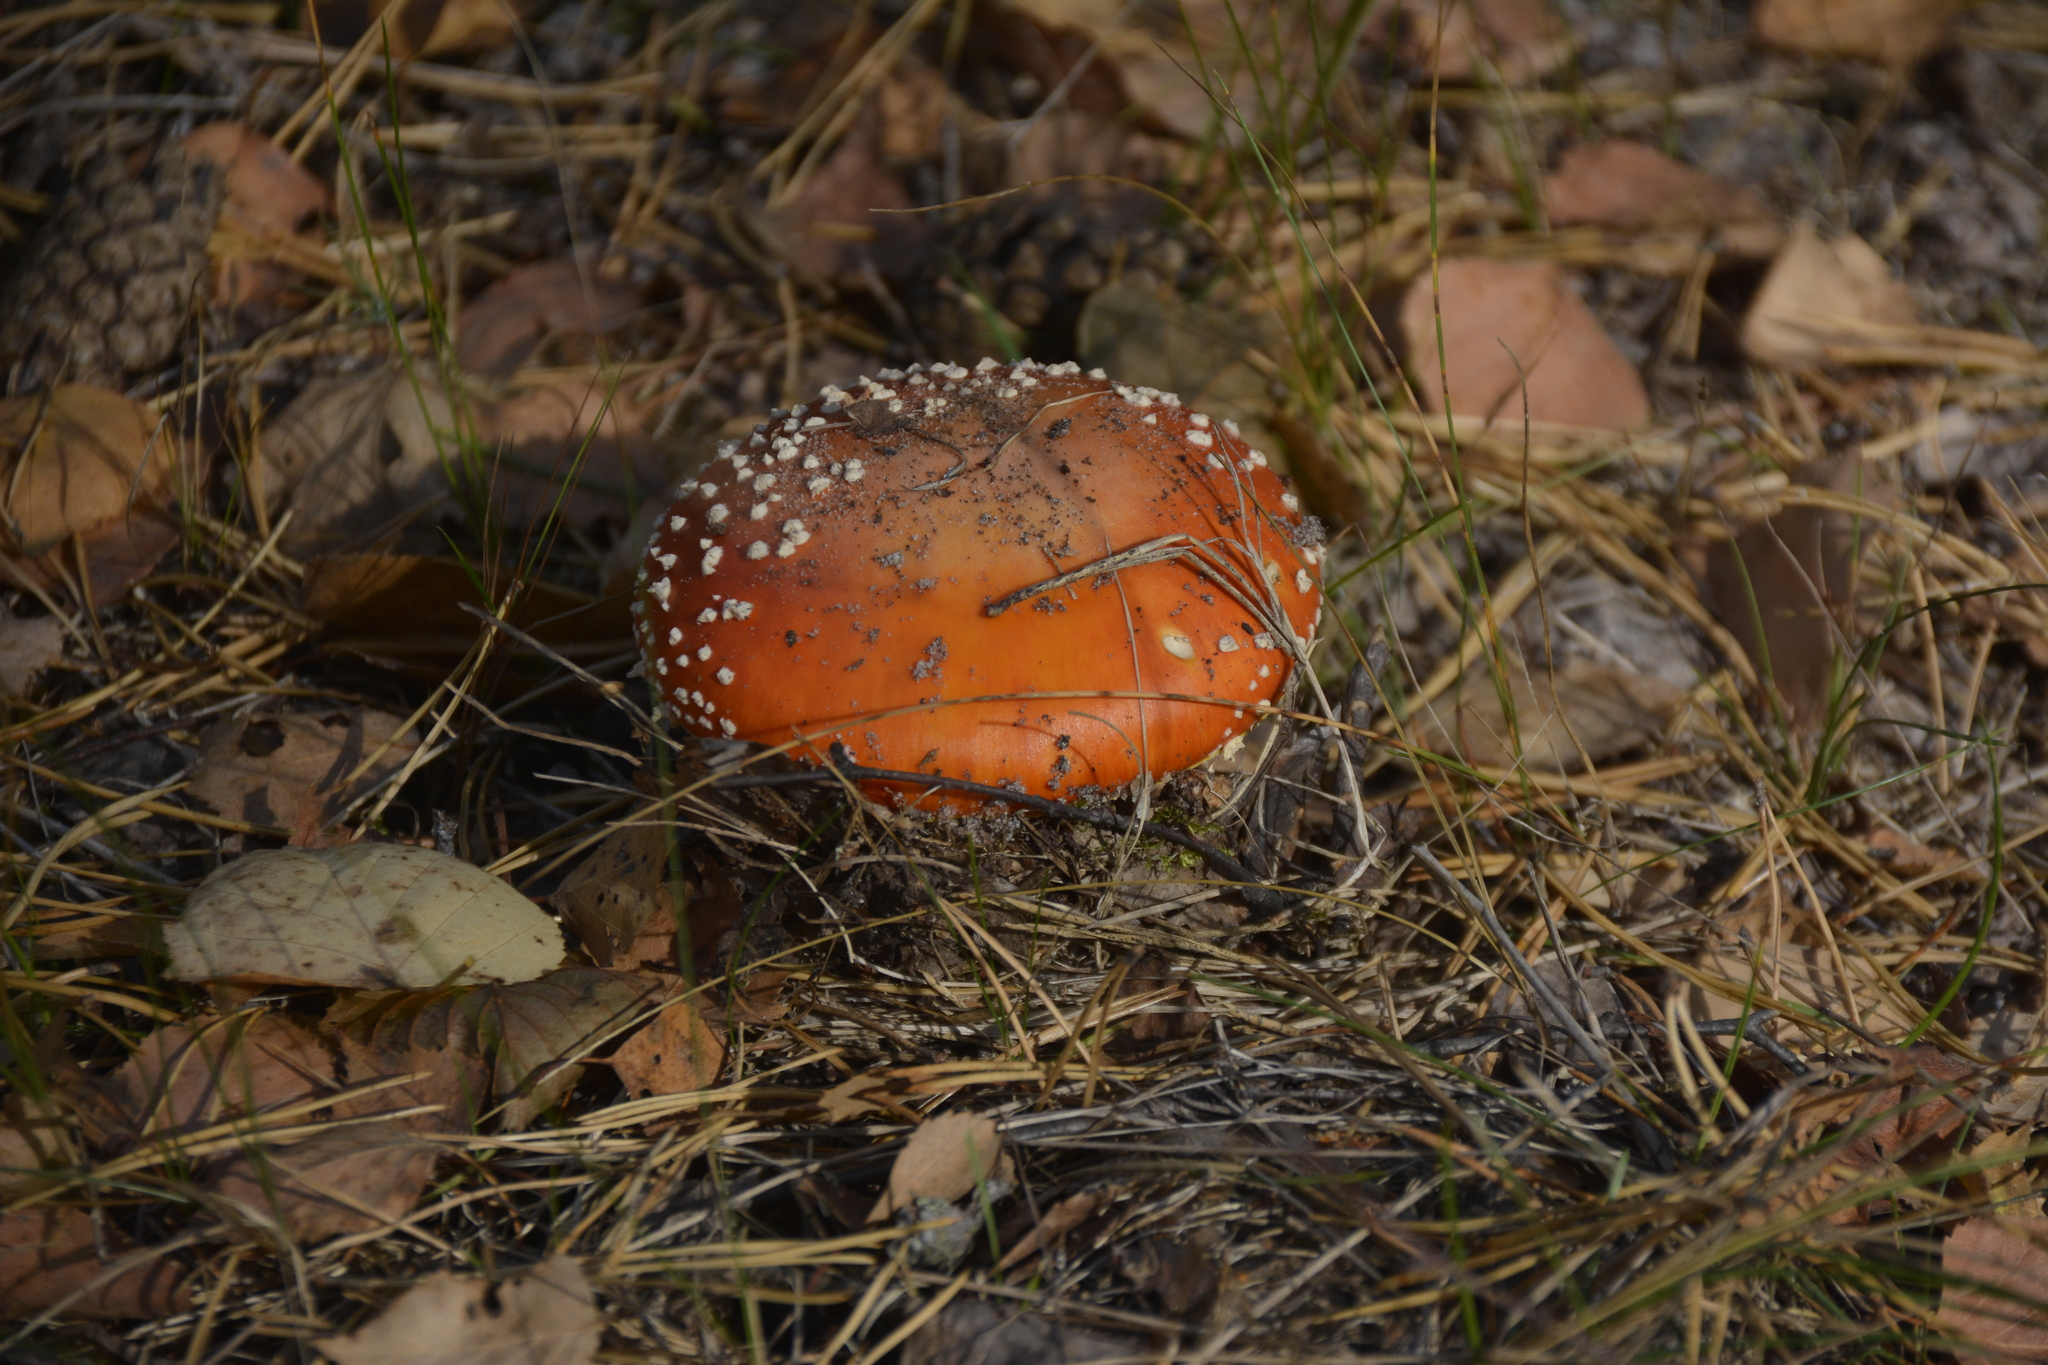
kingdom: Fungi
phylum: Basidiomycota
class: Agaricomycetes
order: Agaricales
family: Amanitaceae
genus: Amanita
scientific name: Amanita muscaria
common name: Fly agaric
